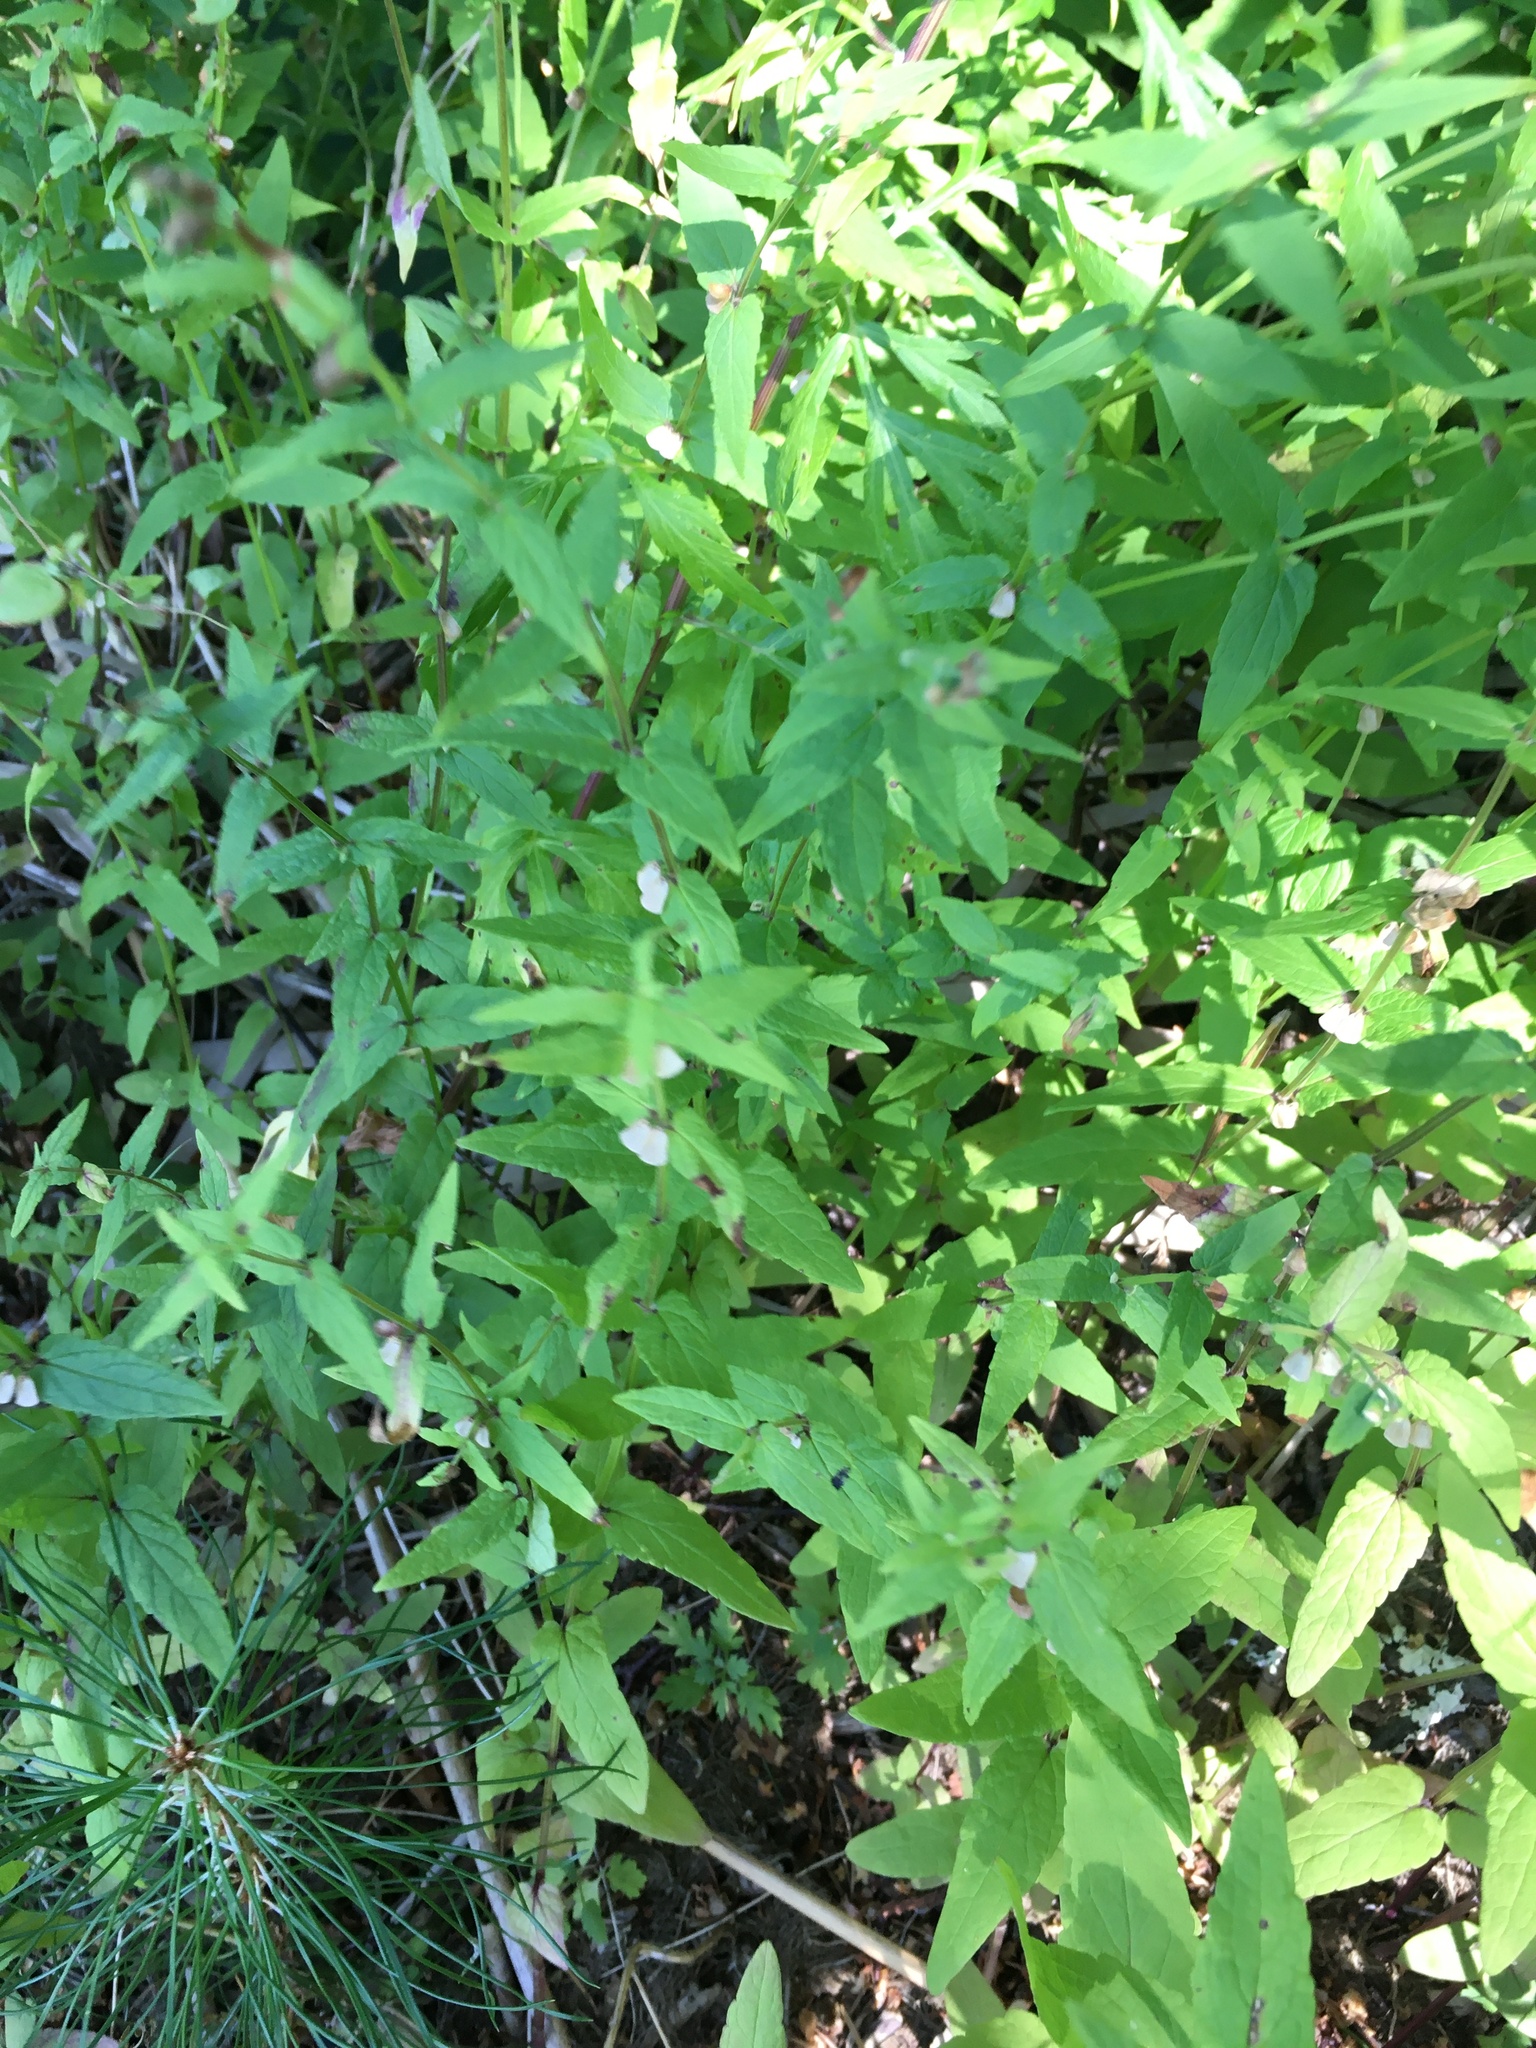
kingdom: Plantae
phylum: Tracheophyta
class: Magnoliopsida
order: Lamiales
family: Lamiaceae
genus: Scutellaria
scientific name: Scutellaria galericulata
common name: Skullcap
